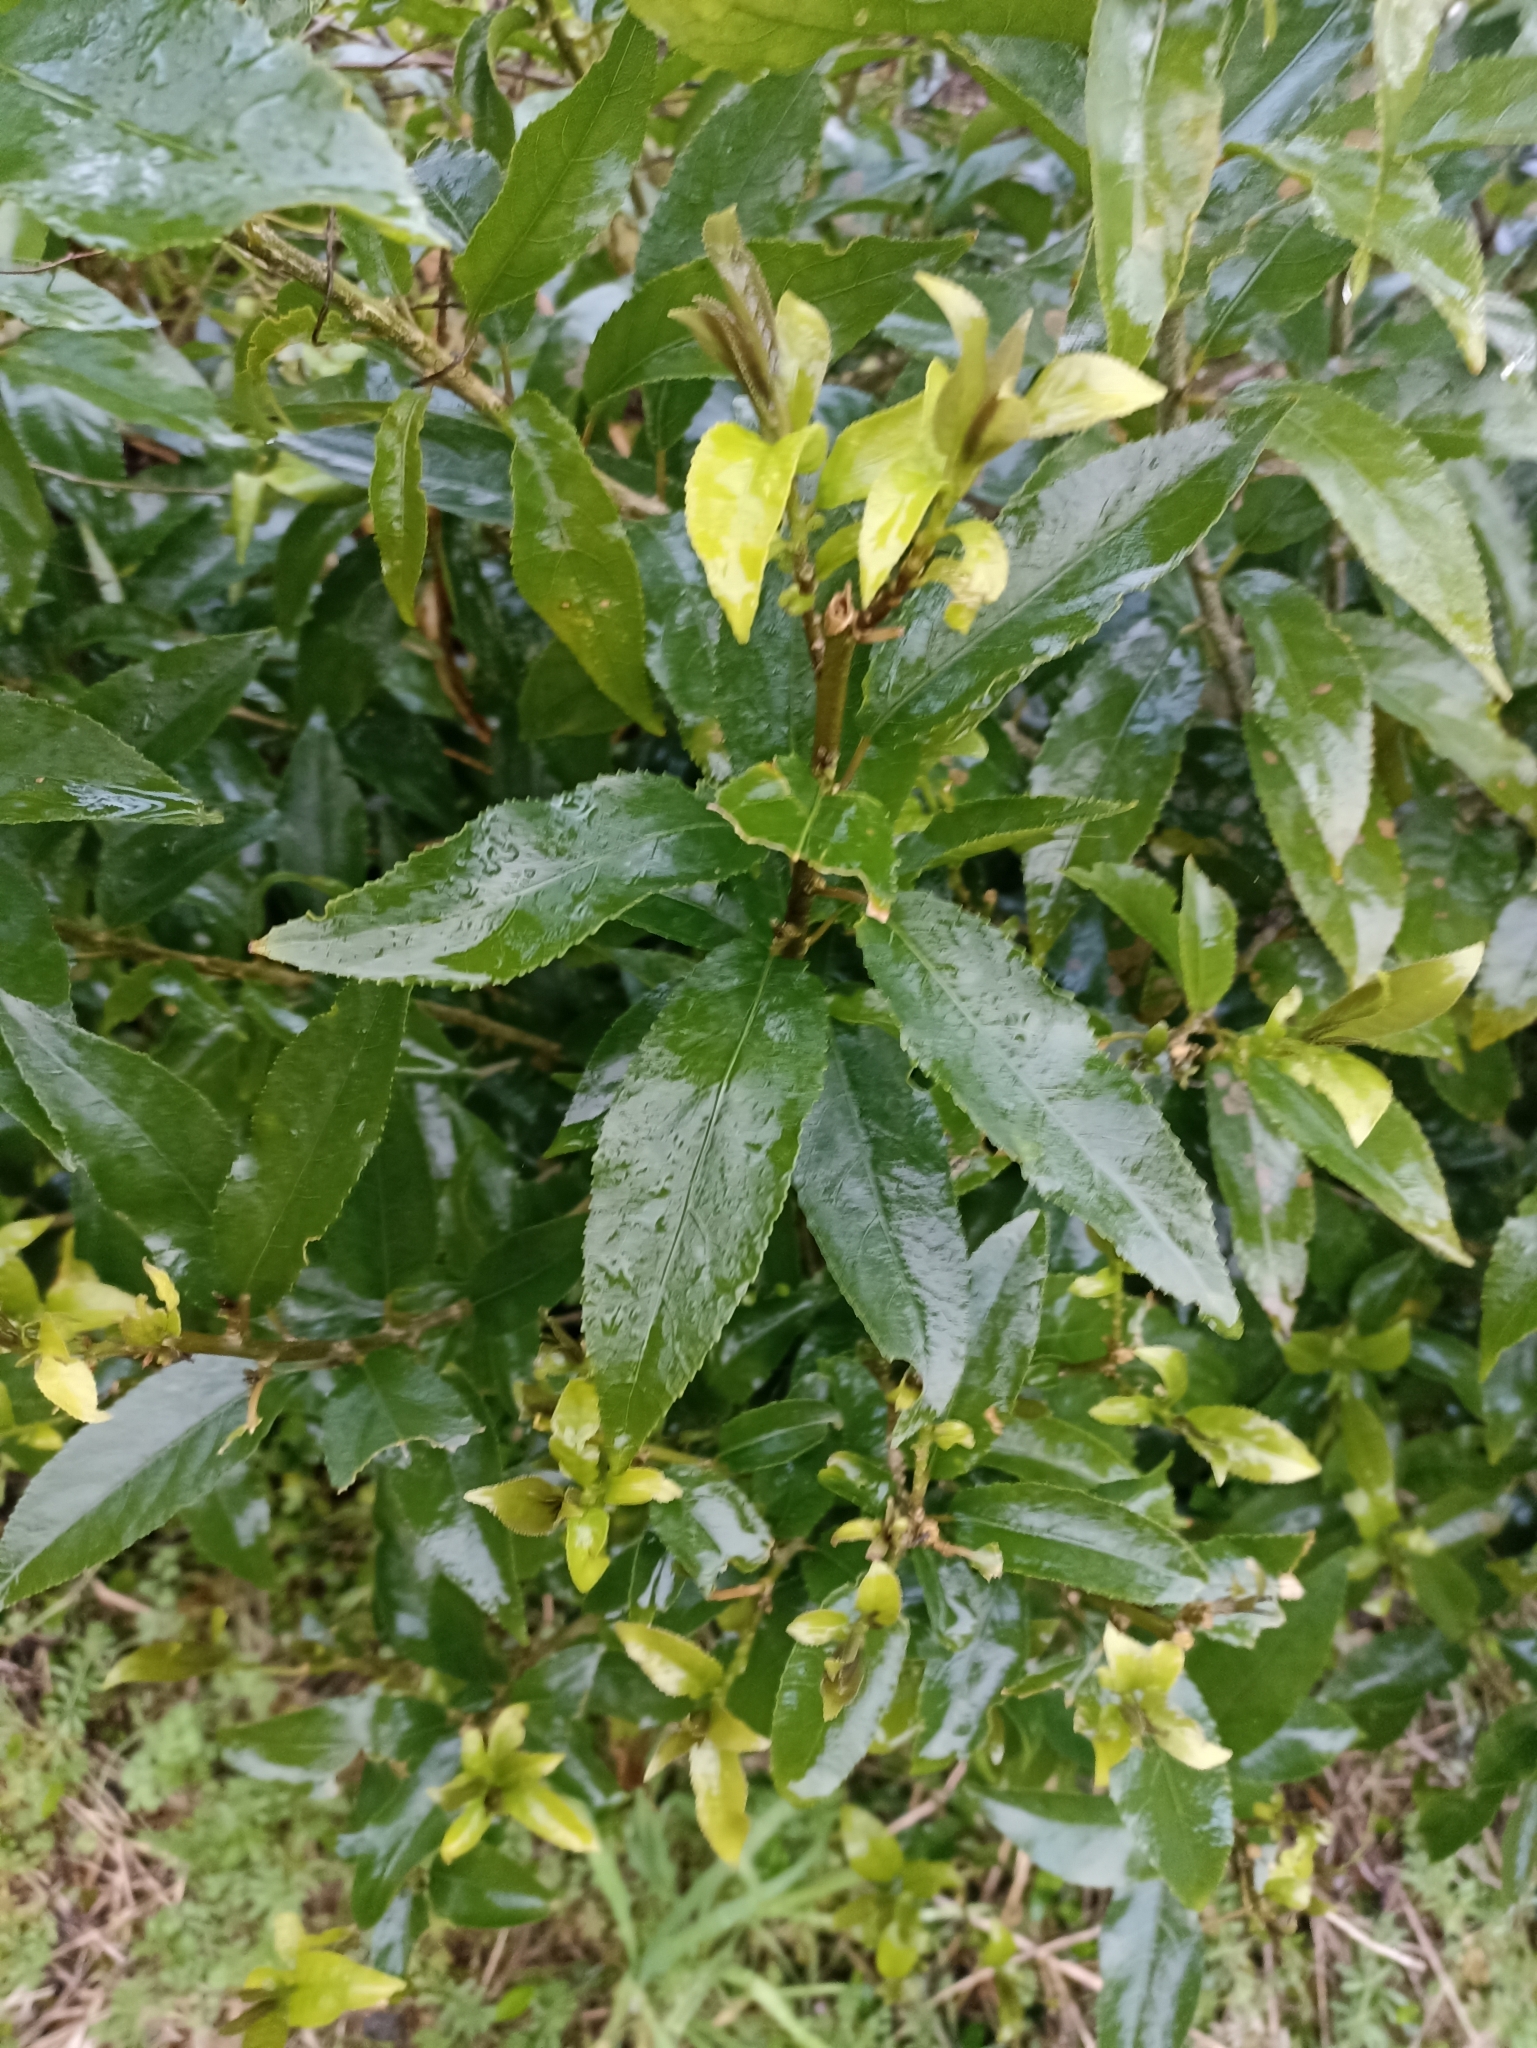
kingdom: Plantae
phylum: Tracheophyta
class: Magnoliopsida
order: Malpighiales
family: Violaceae
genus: Melicytus
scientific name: Melicytus ramiflorus
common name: Mahoe
